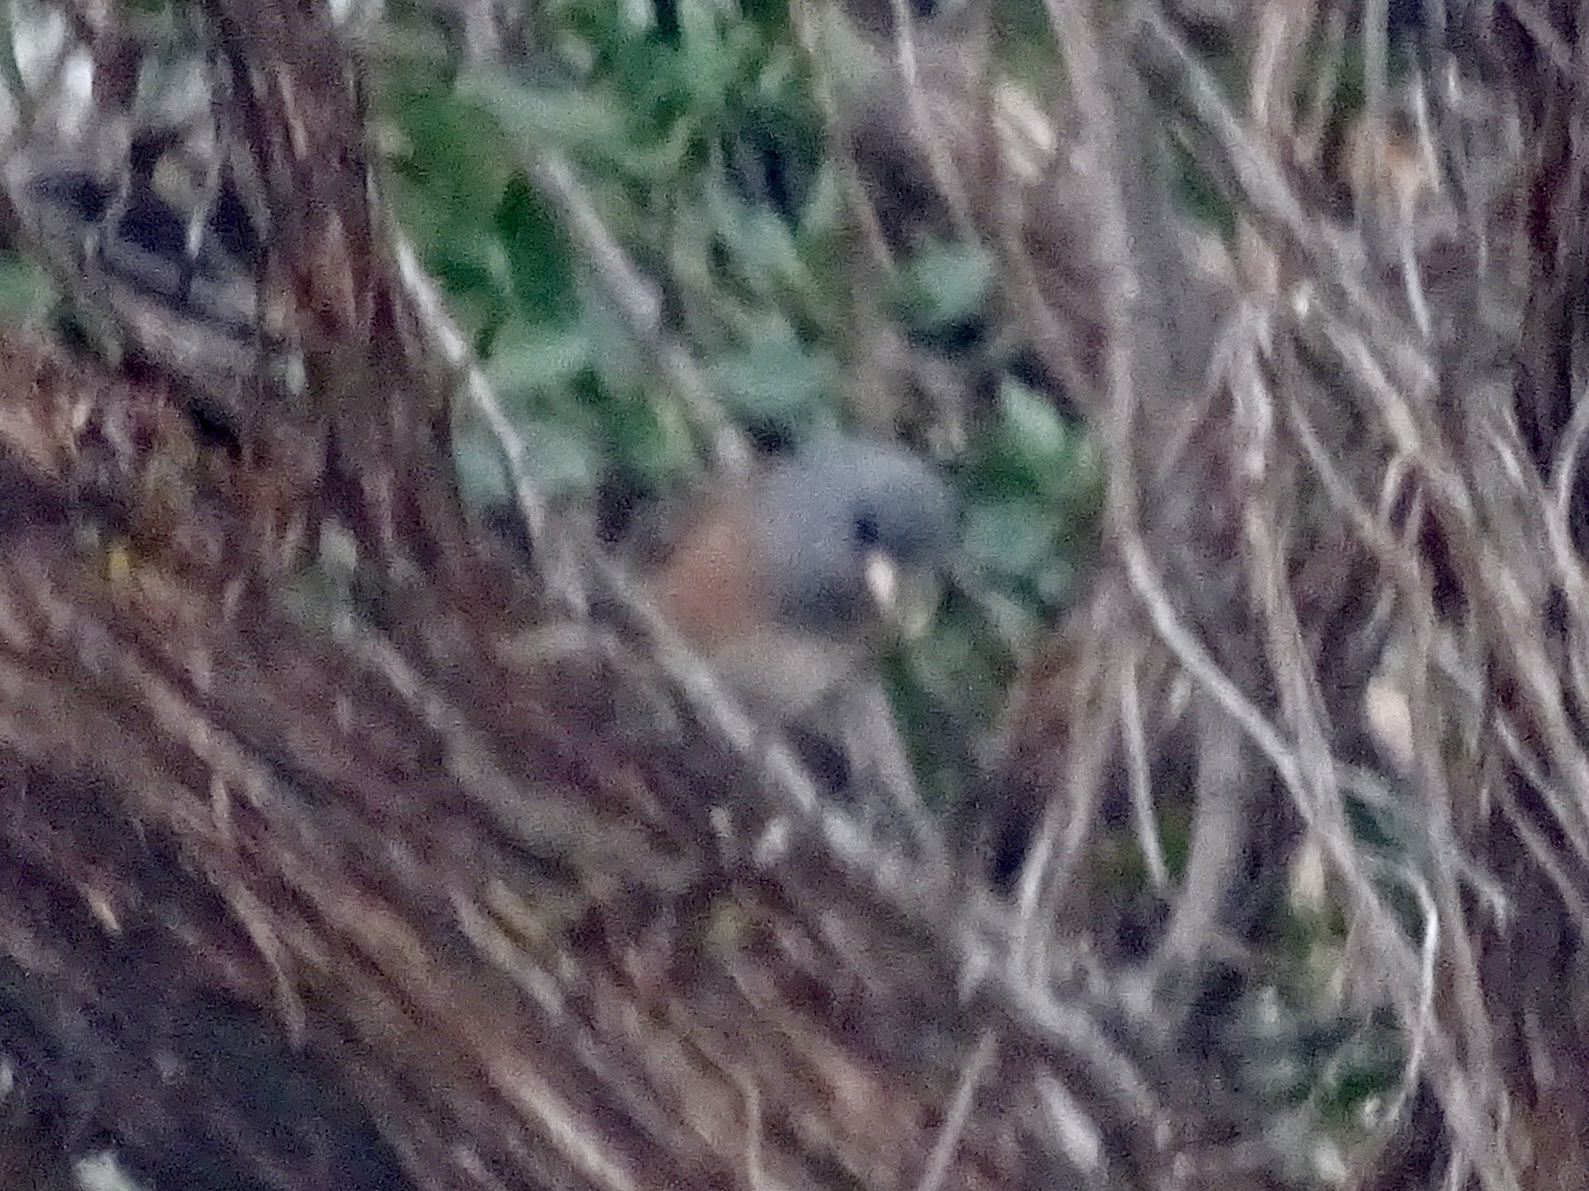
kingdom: Animalia
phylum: Chordata
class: Aves
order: Passeriformes
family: Passerellidae
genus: Junco
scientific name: Junco hyemalis
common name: Dark-eyed junco
